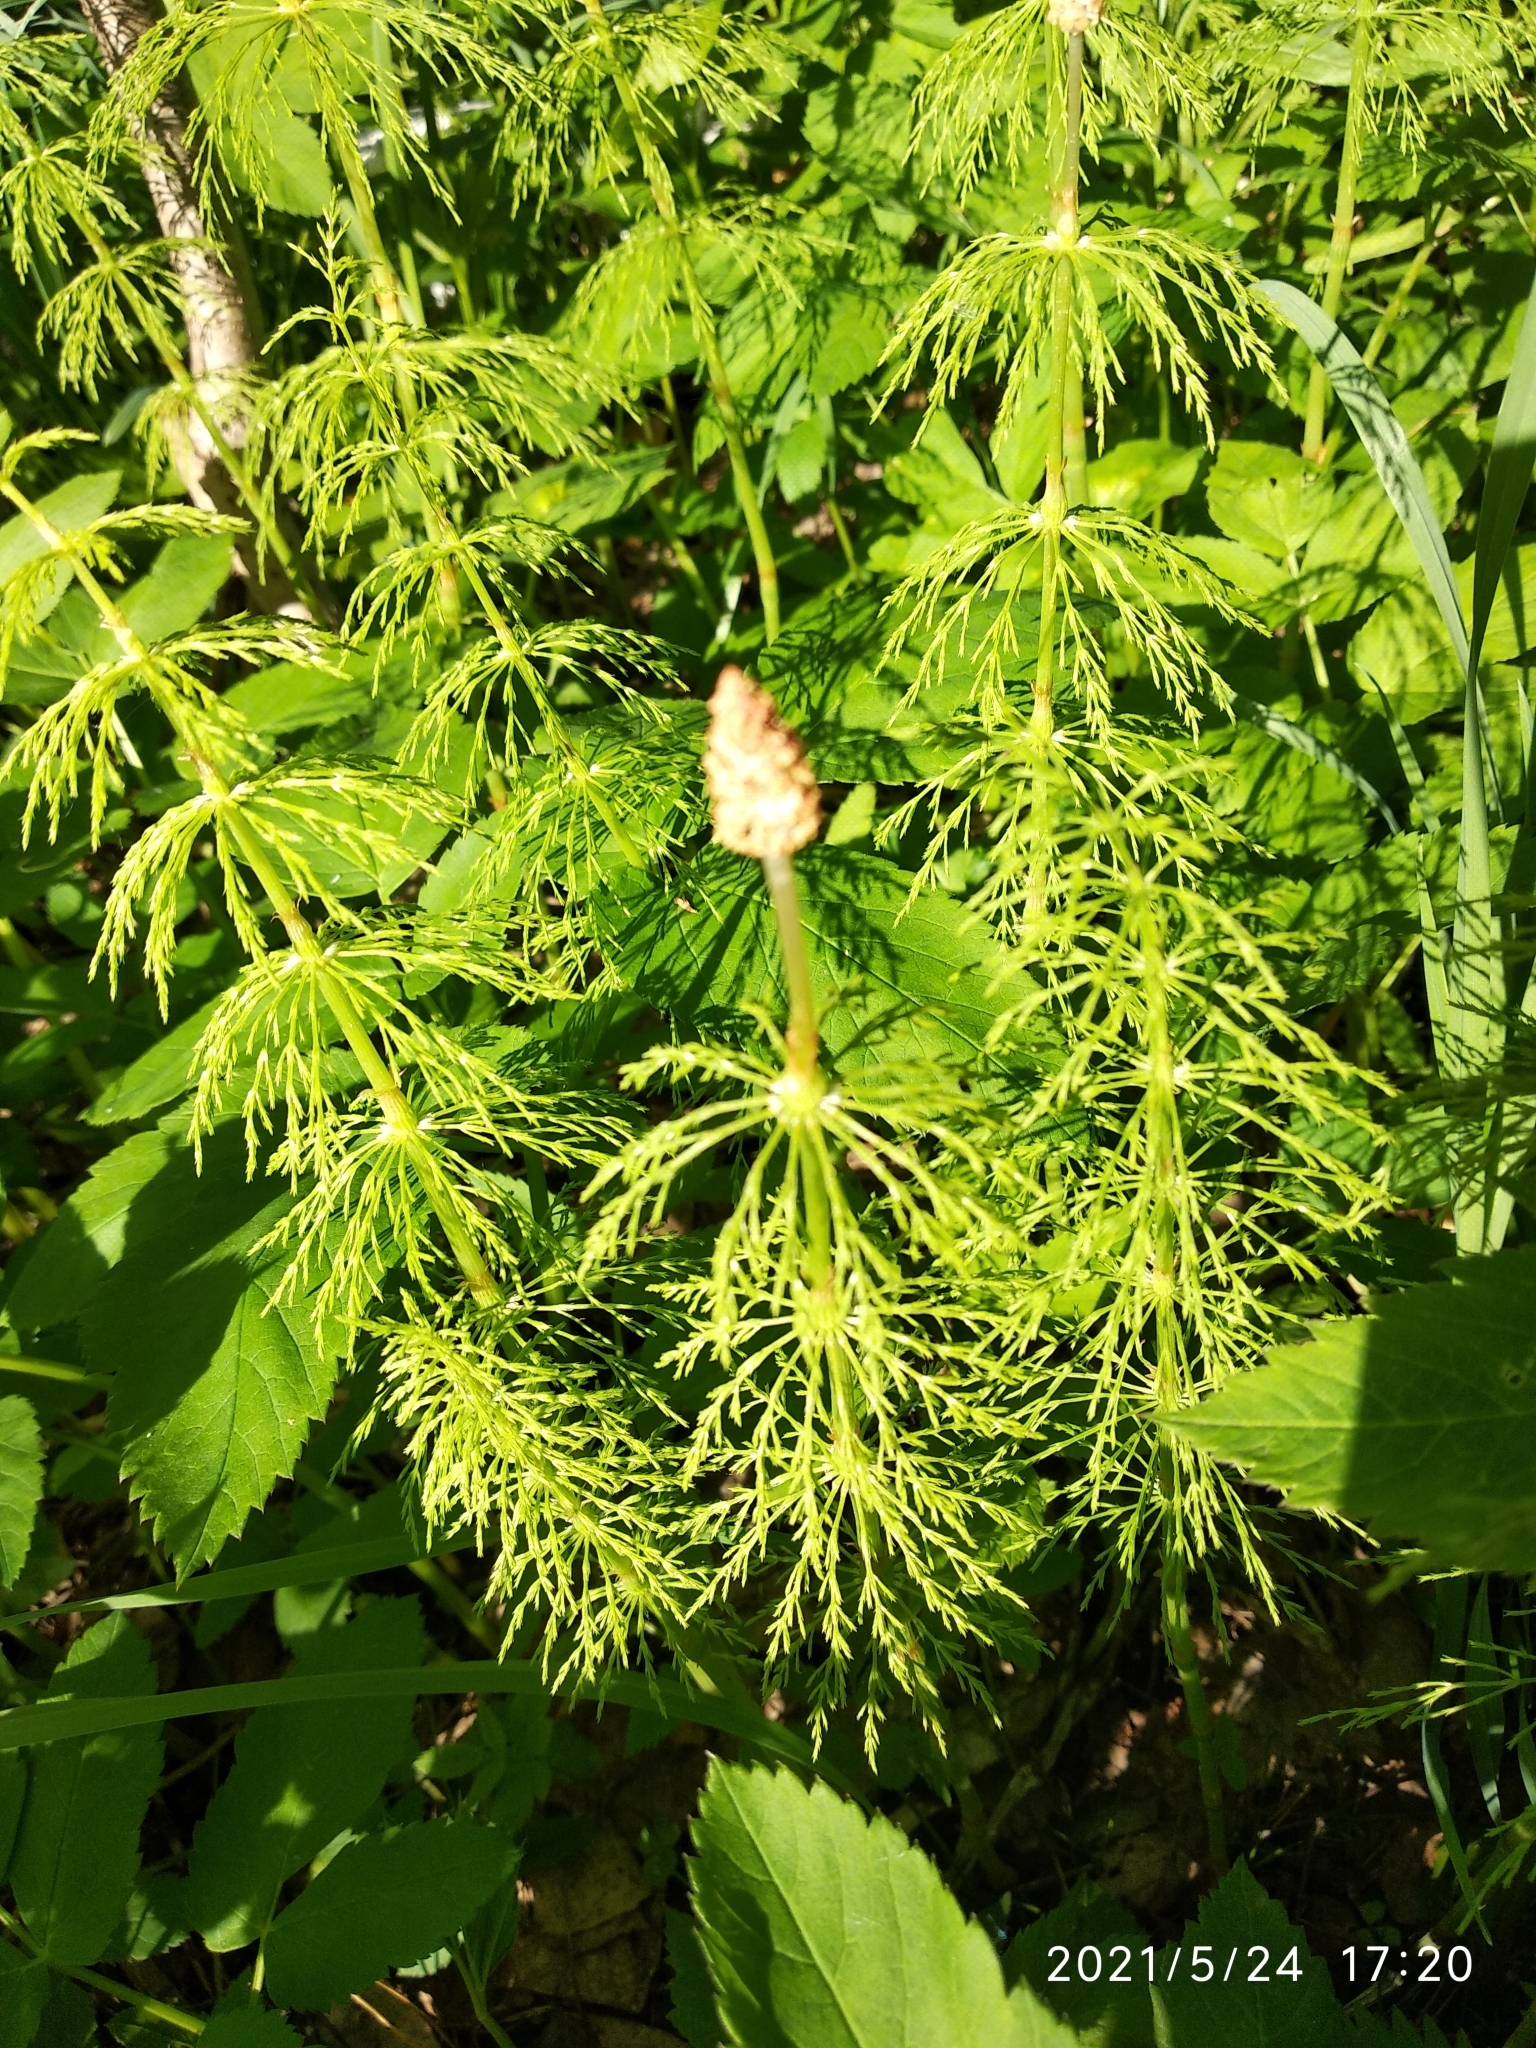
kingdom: Plantae
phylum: Tracheophyta
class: Polypodiopsida
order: Equisetales
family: Equisetaceae
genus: Equisetum
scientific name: Equisetum sylvaticum
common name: Wood horsetail
